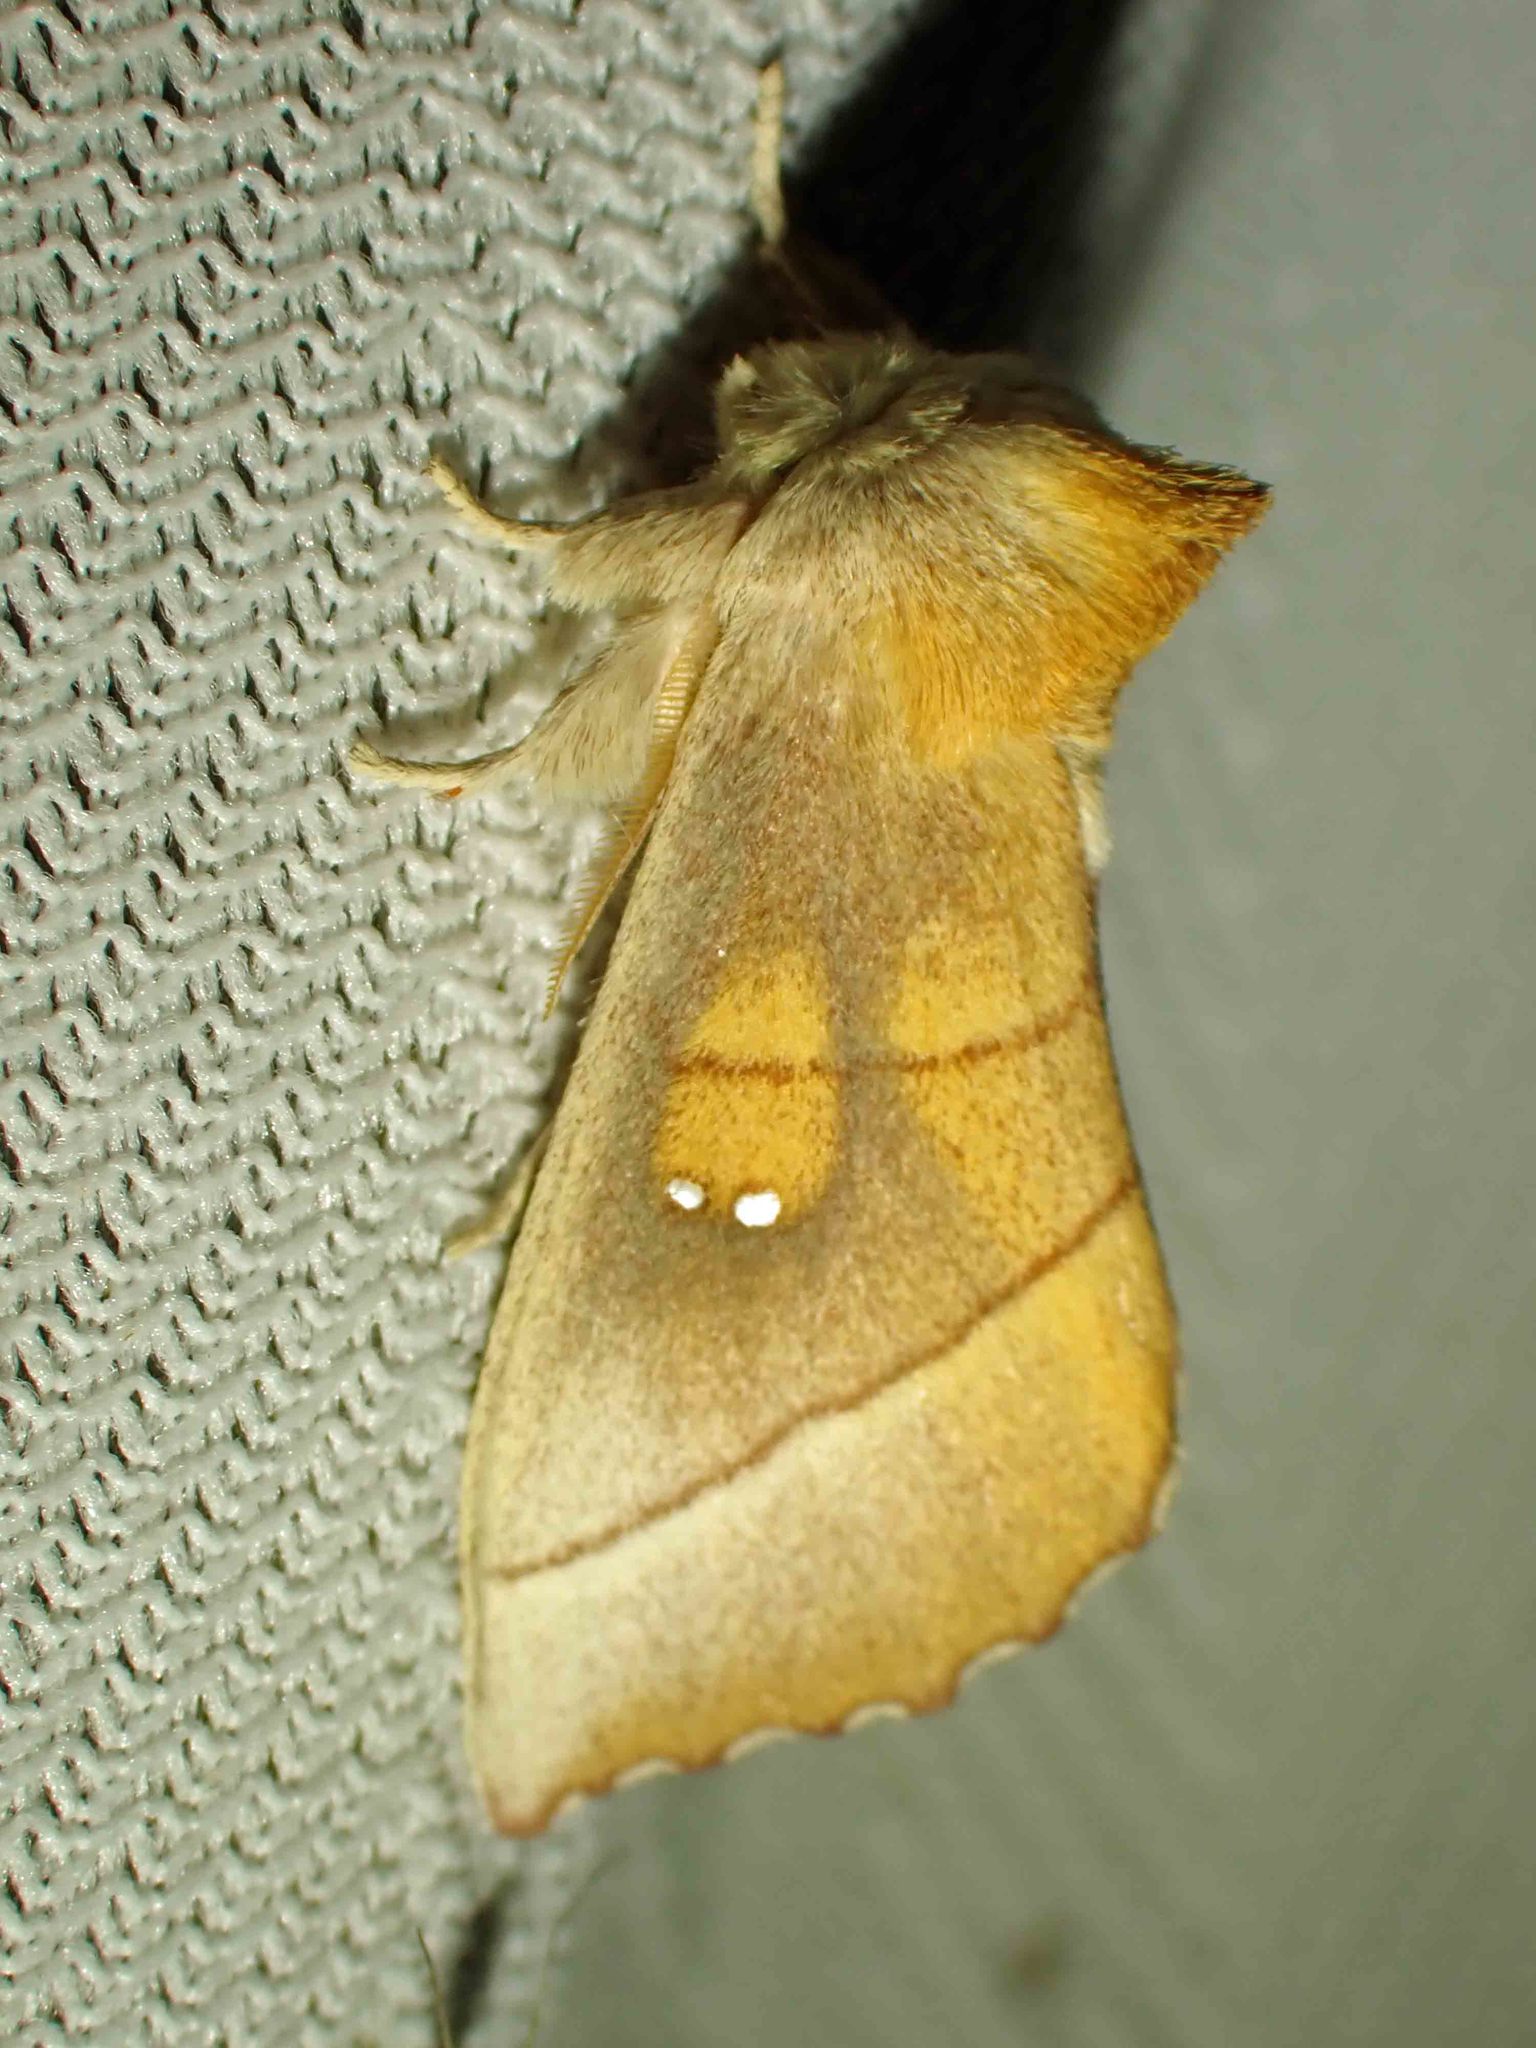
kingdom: Animalia
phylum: Arthropoda
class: Insecta
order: Lepidoptera
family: Notodontidae
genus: Nadata
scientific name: Nadata gibbosa
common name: White-dotted prominent
